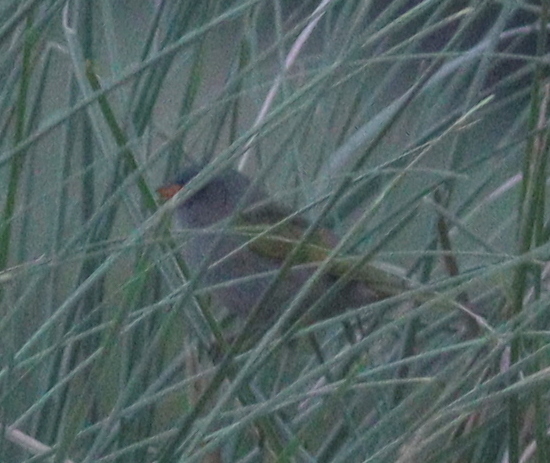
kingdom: Animalia
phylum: Chordata
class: Aves
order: Passeriformes
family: Thraupidae
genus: Embernagra
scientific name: Embernagra platensis
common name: Pampa finch
